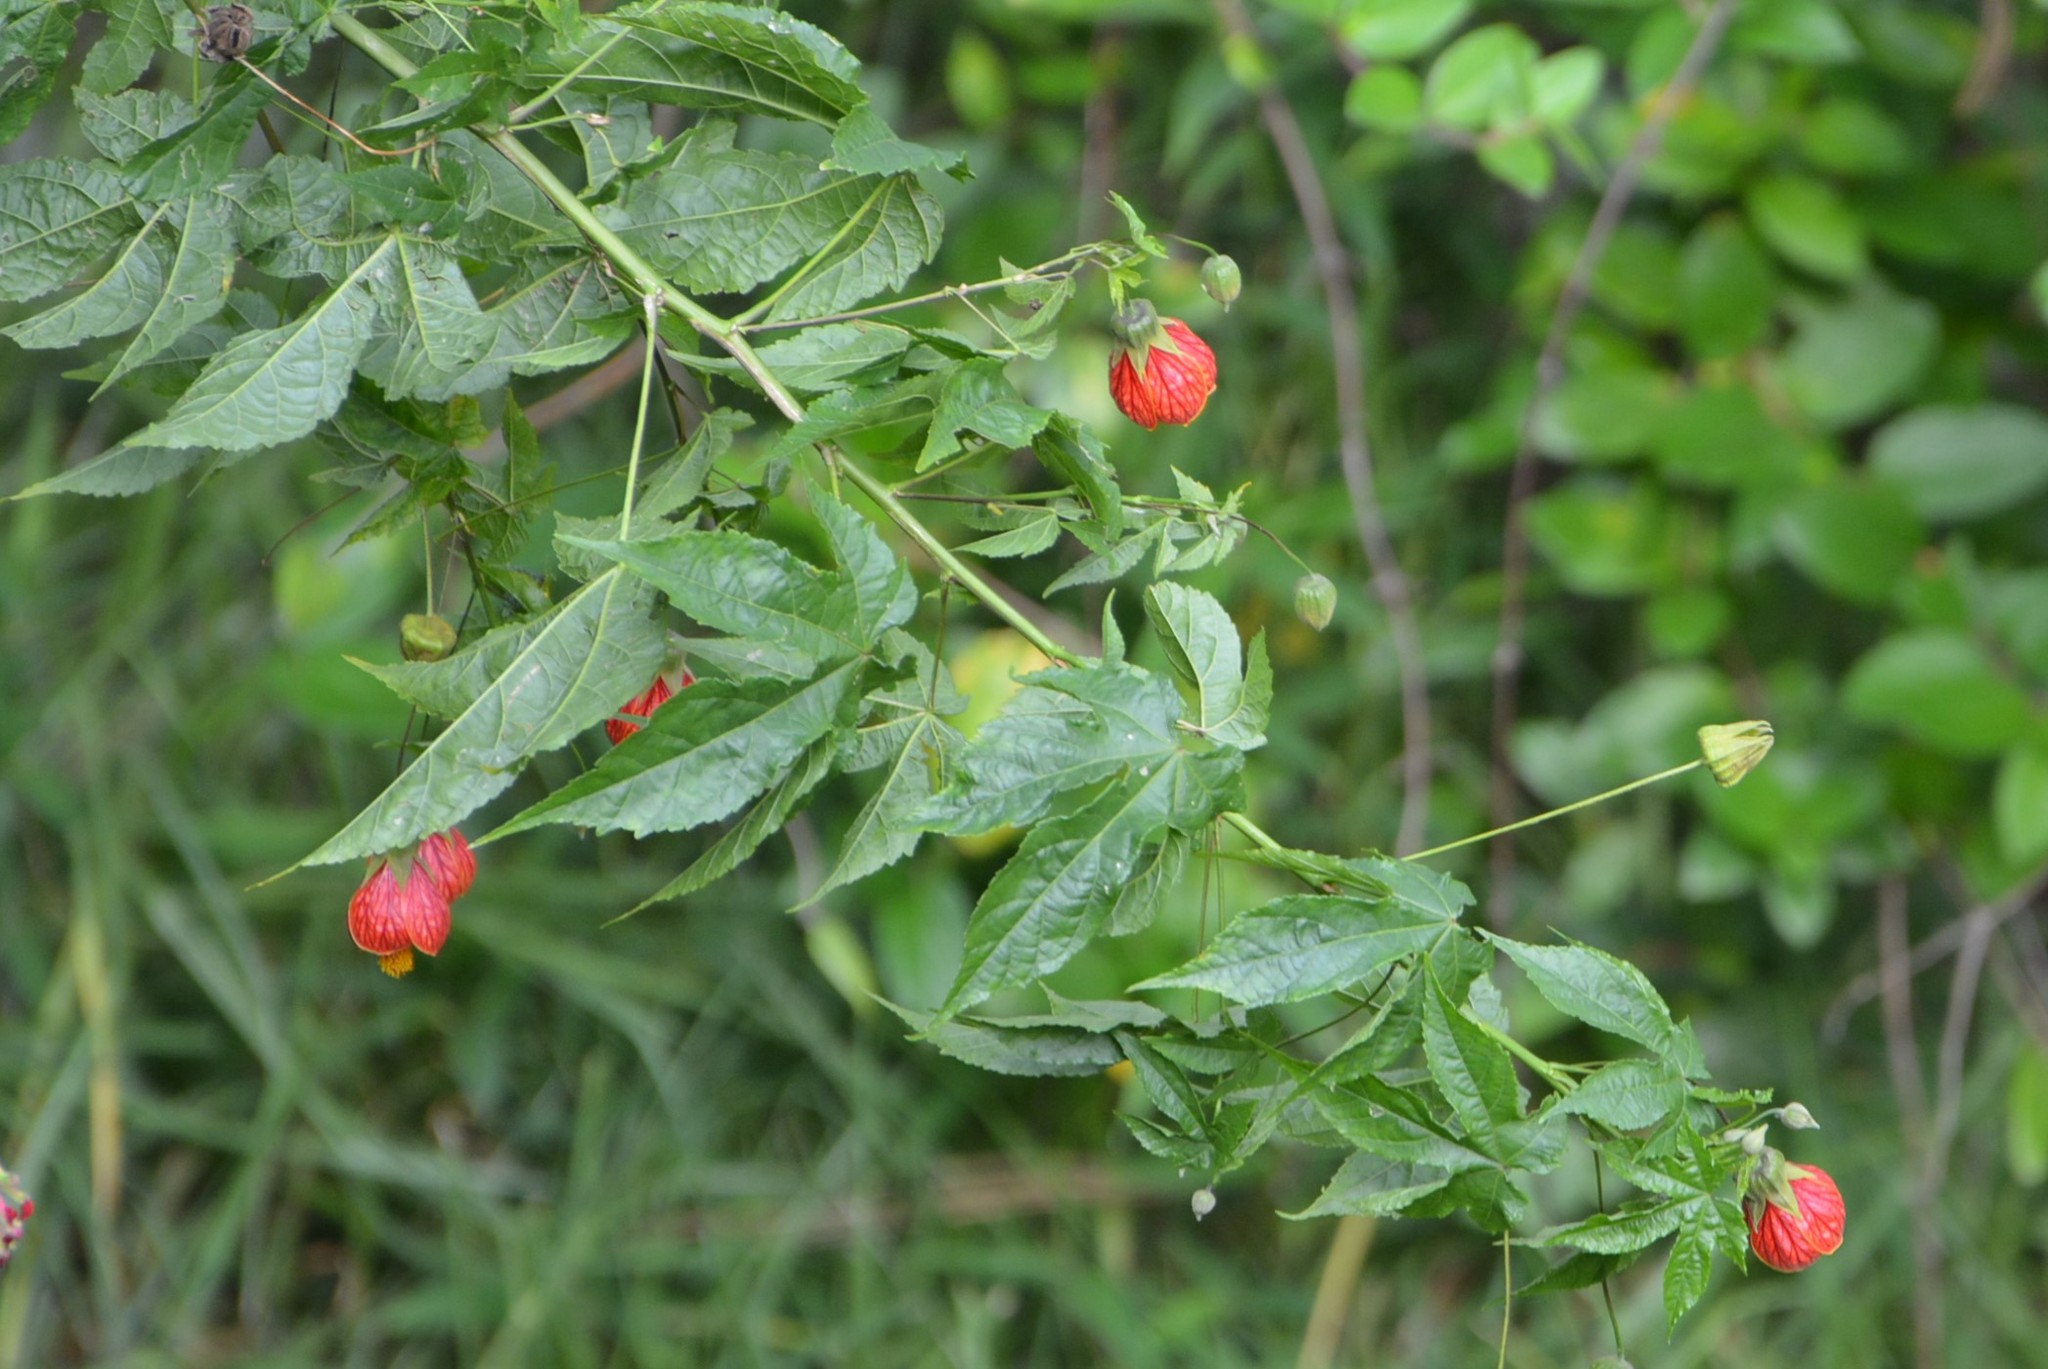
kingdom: Plantae
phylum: Tracheophyta
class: Magnoliopsida
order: Malvales
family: Malvaceae
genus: Callianthe
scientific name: Callianthe picta
